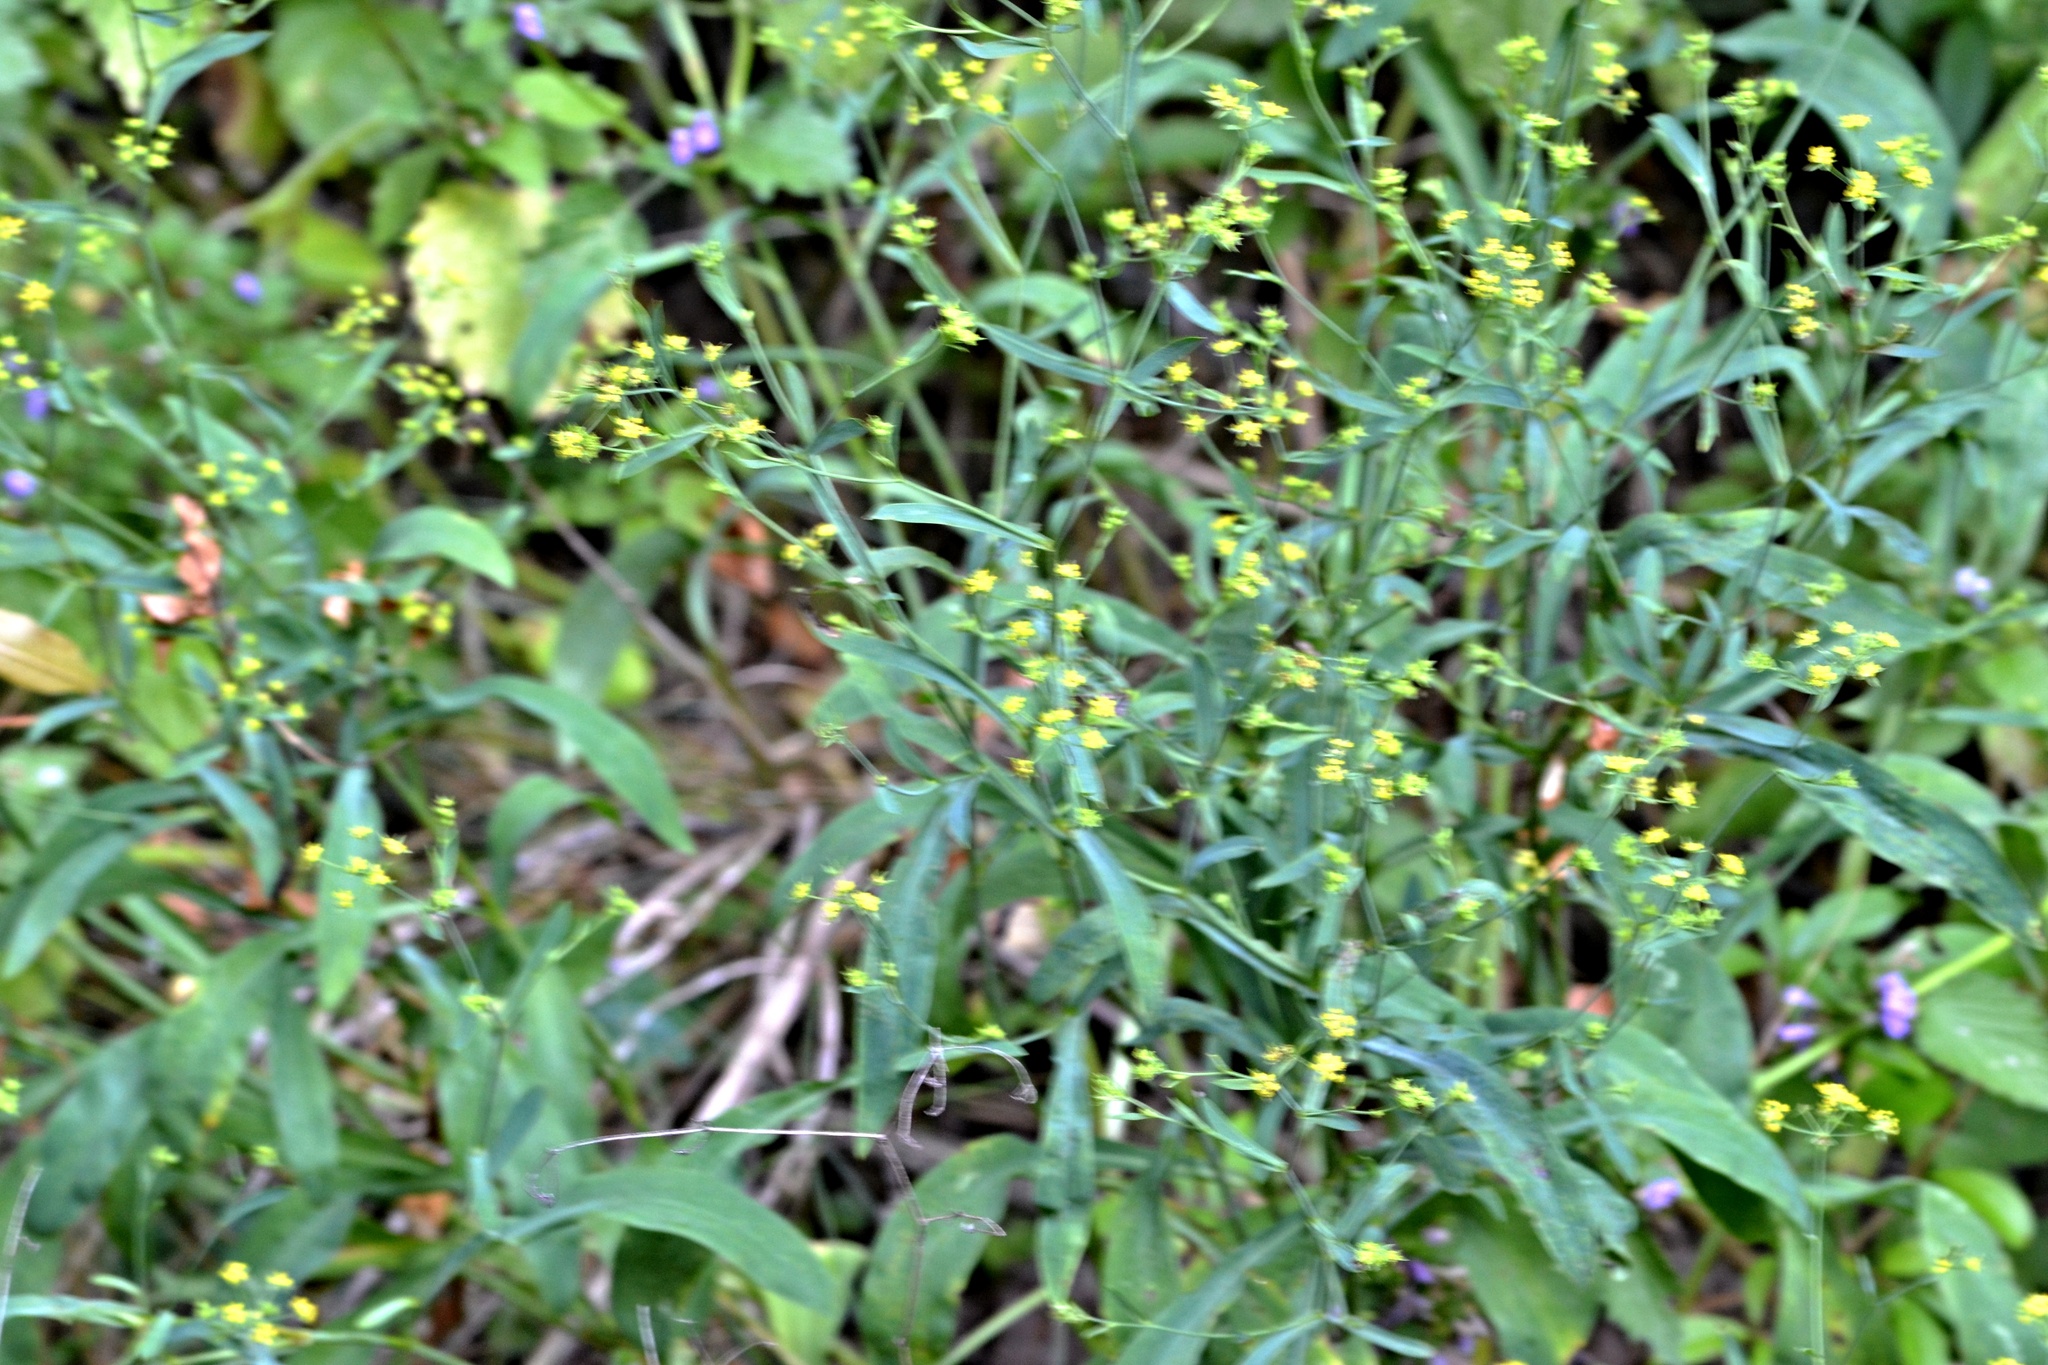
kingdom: Plantae
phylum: Tracheophyta
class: Magnoliopsida
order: Apiales
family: Apiaceae
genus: Bupleurum
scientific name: Bupleurum falcatum
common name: Sickle-leaved hare's-ear
